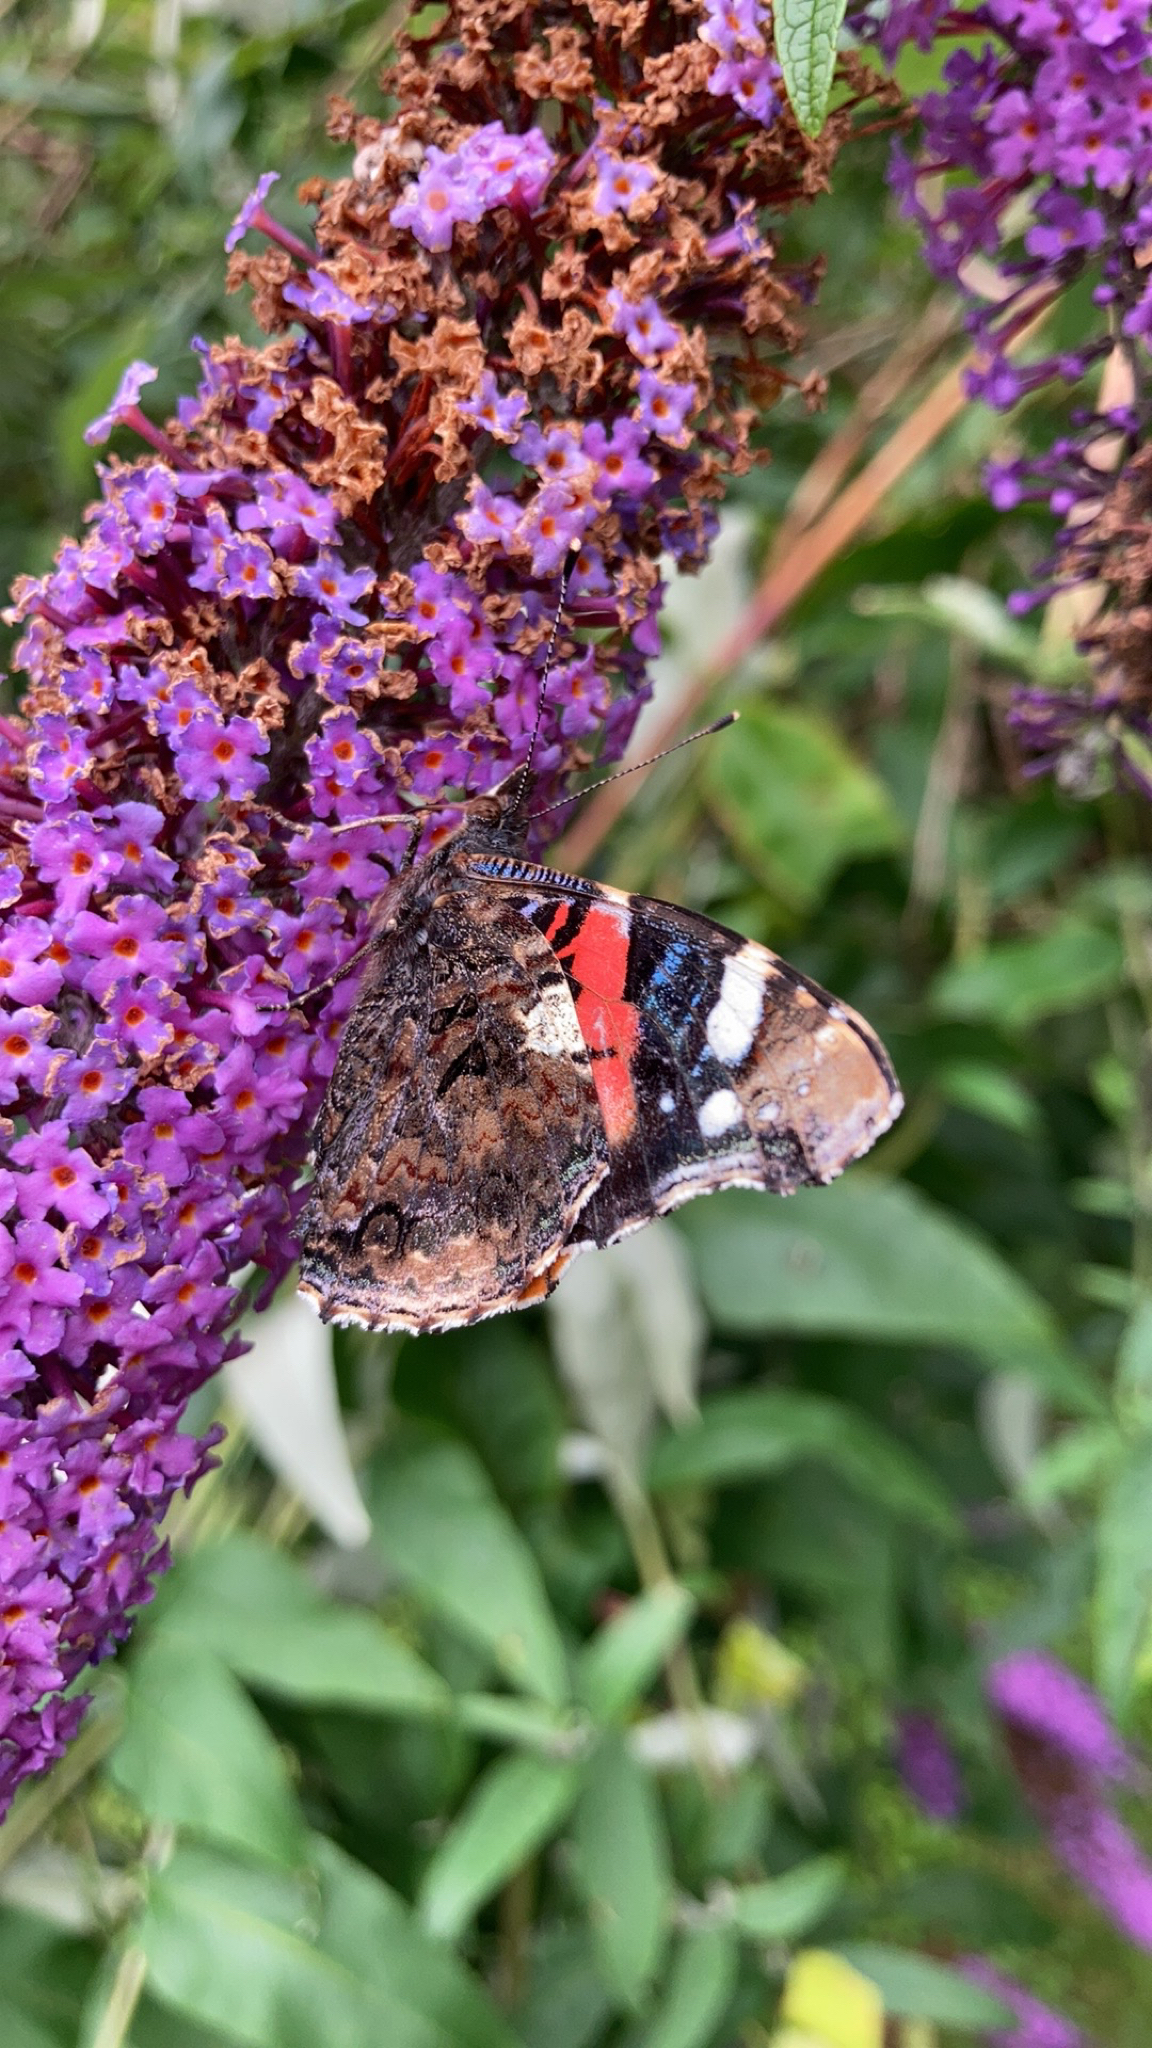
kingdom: Animalia
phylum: Arthropoda
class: Insecta
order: Lepidoptera
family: Nymphalidae
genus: Vanessa
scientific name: Vanessa atalanta
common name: Red admiral
